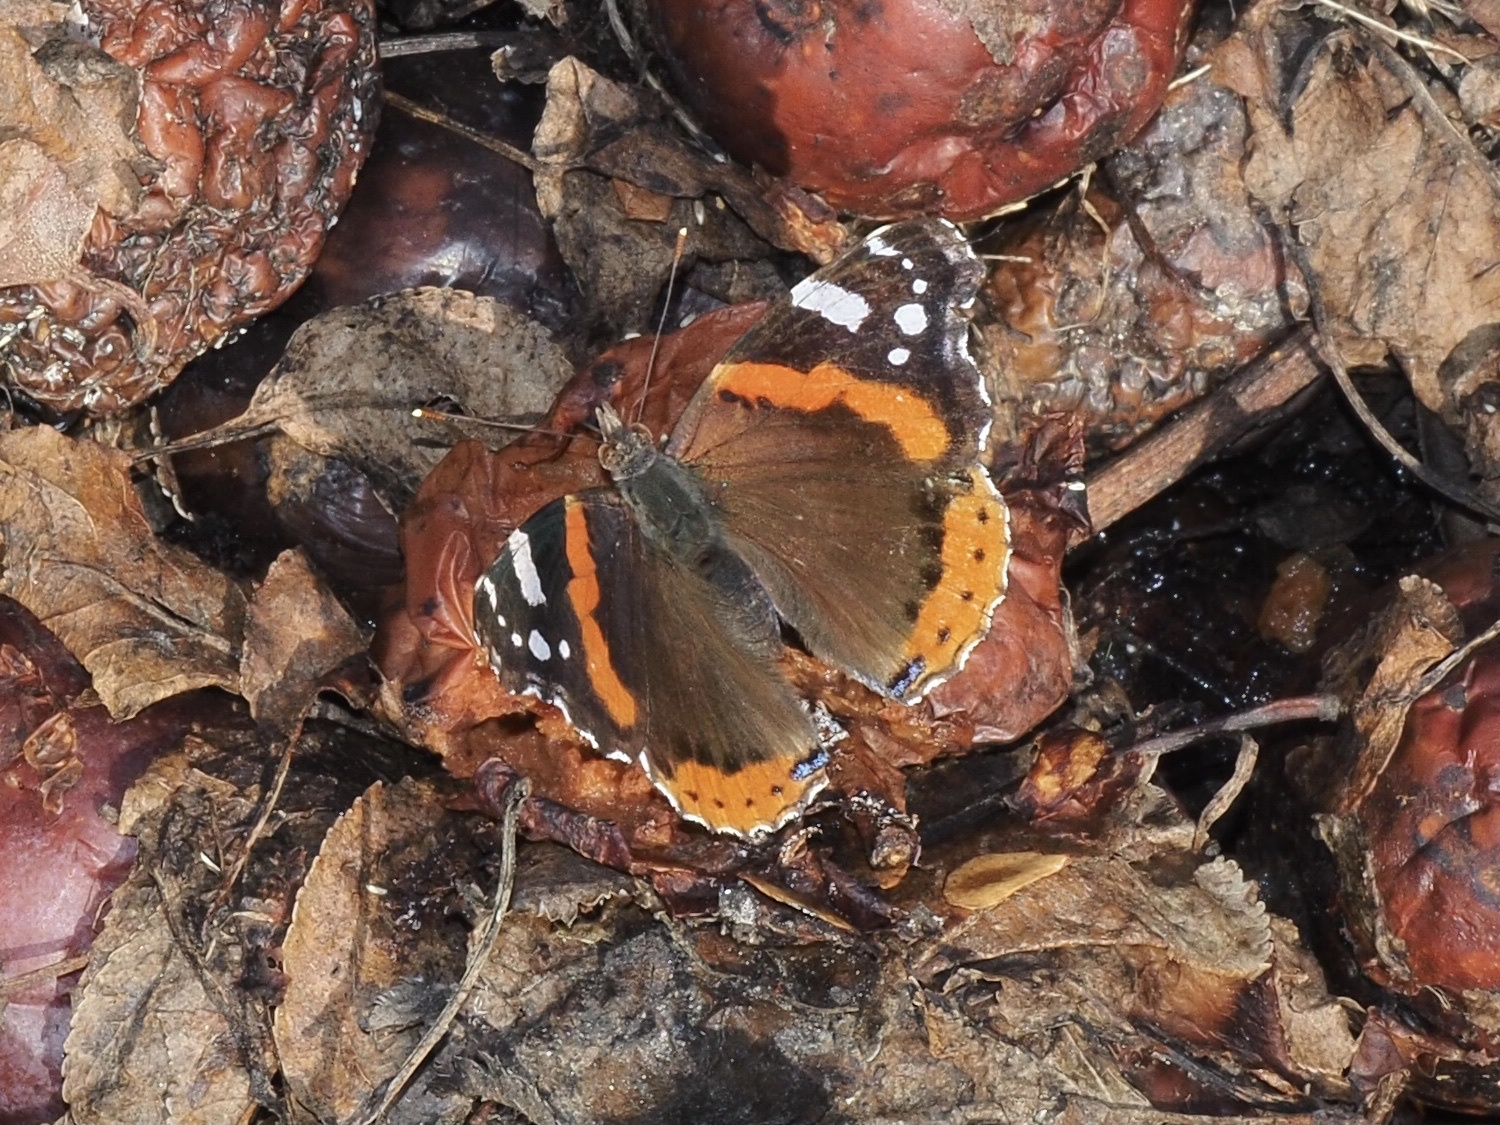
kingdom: Animalia
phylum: Arthropoda
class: Insecta
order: Lepidoptera
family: Nymphalidae
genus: Vanessa
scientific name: Vanessa atalanta
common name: Red admiral
